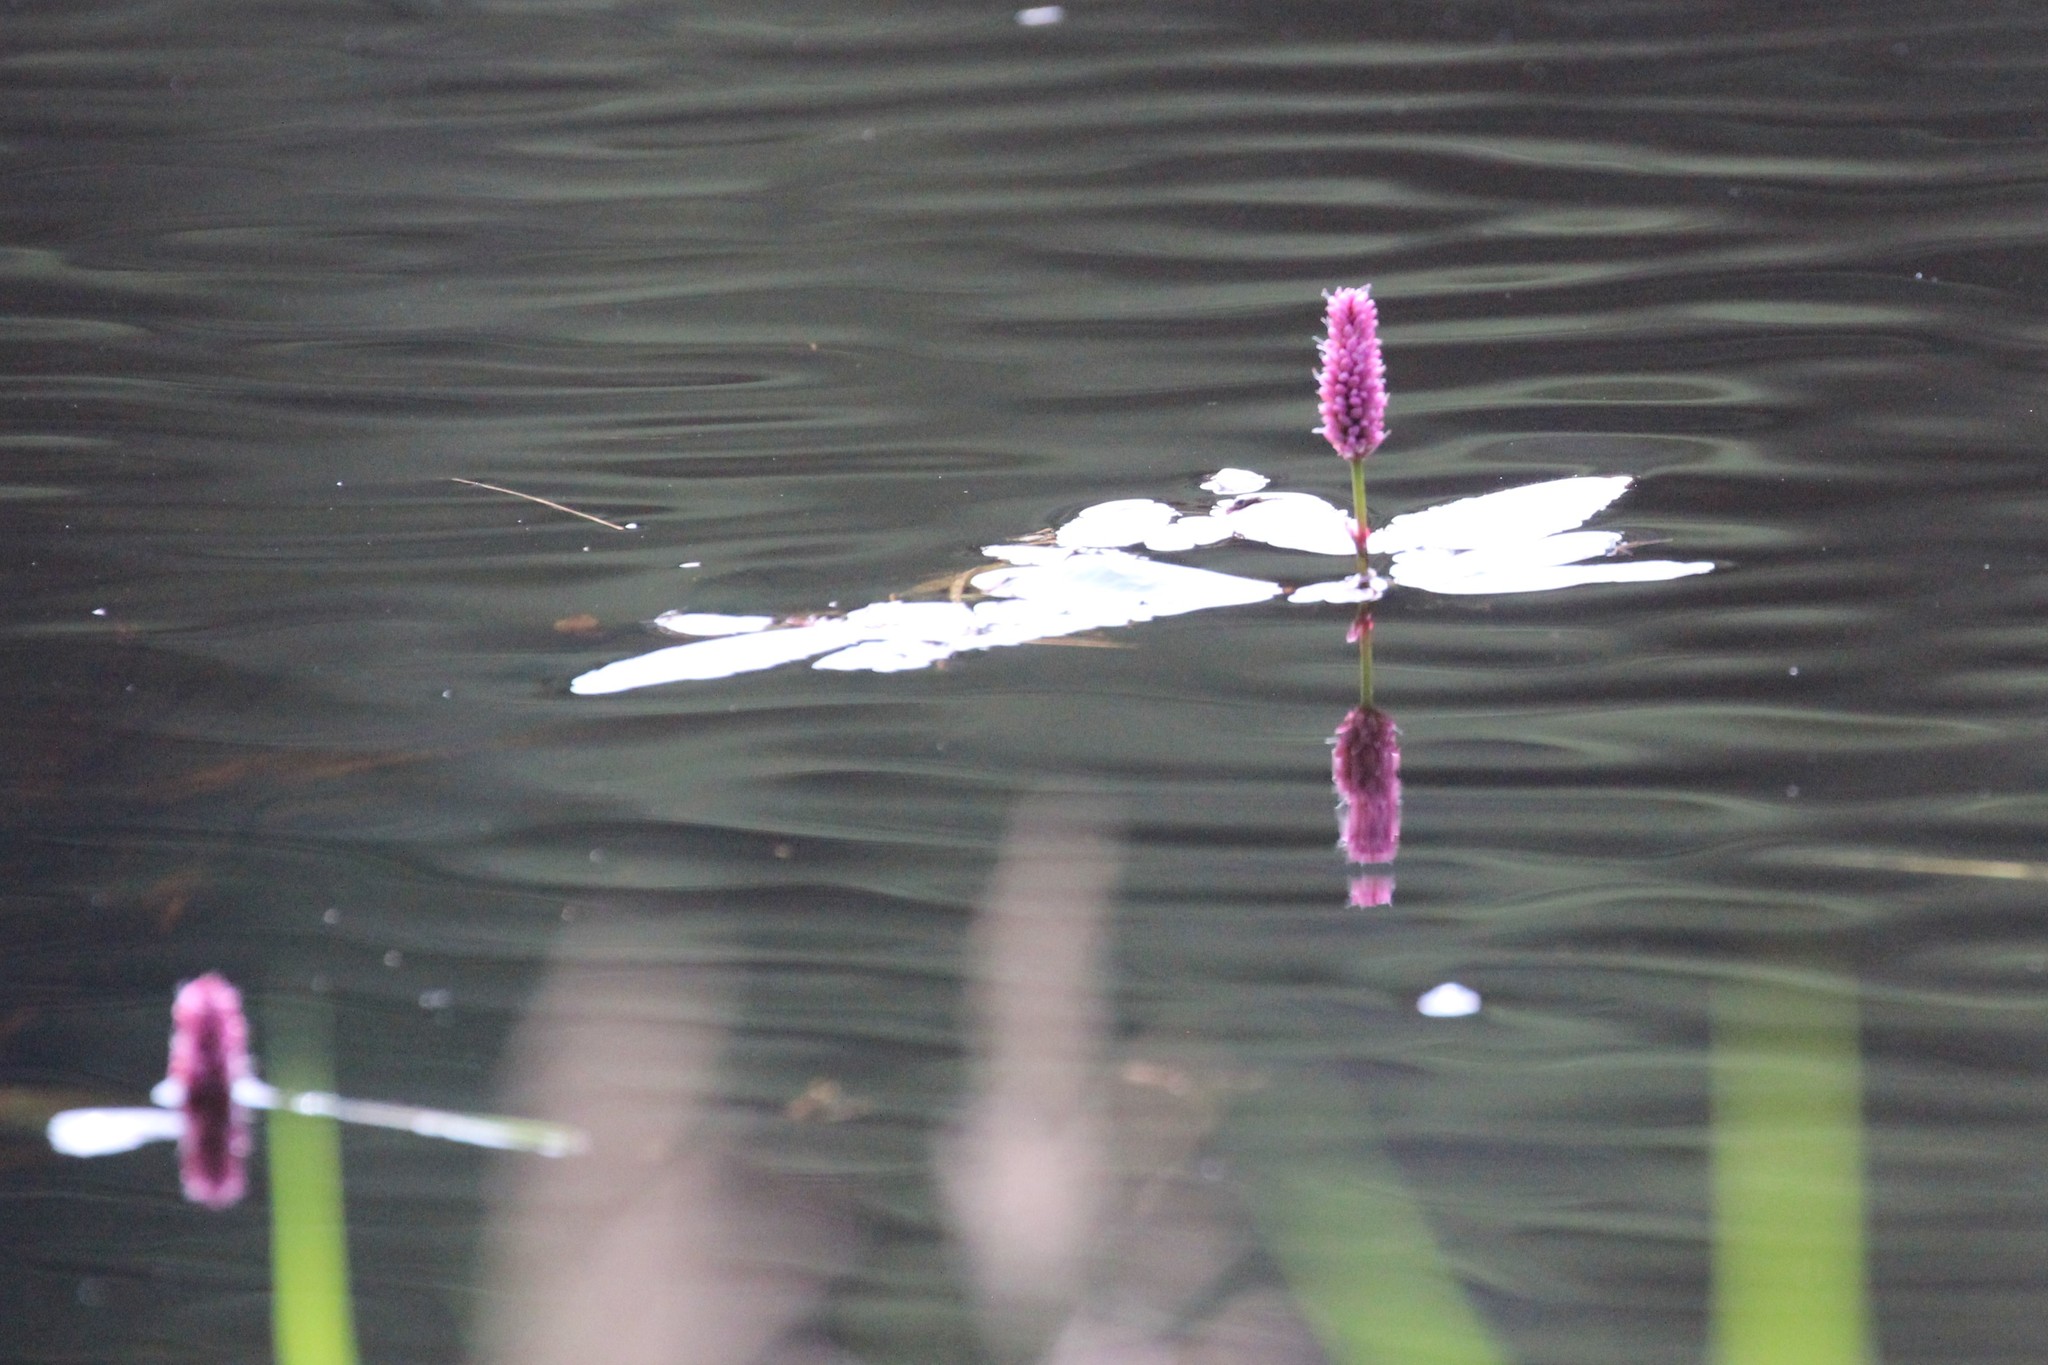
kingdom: Plantae
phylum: Tracheophyta
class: Magnoliopsida
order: Caryophyllales
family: Polygonaceae
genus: Persicaria
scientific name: Persicaria amphibia
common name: Amphibious bistort
